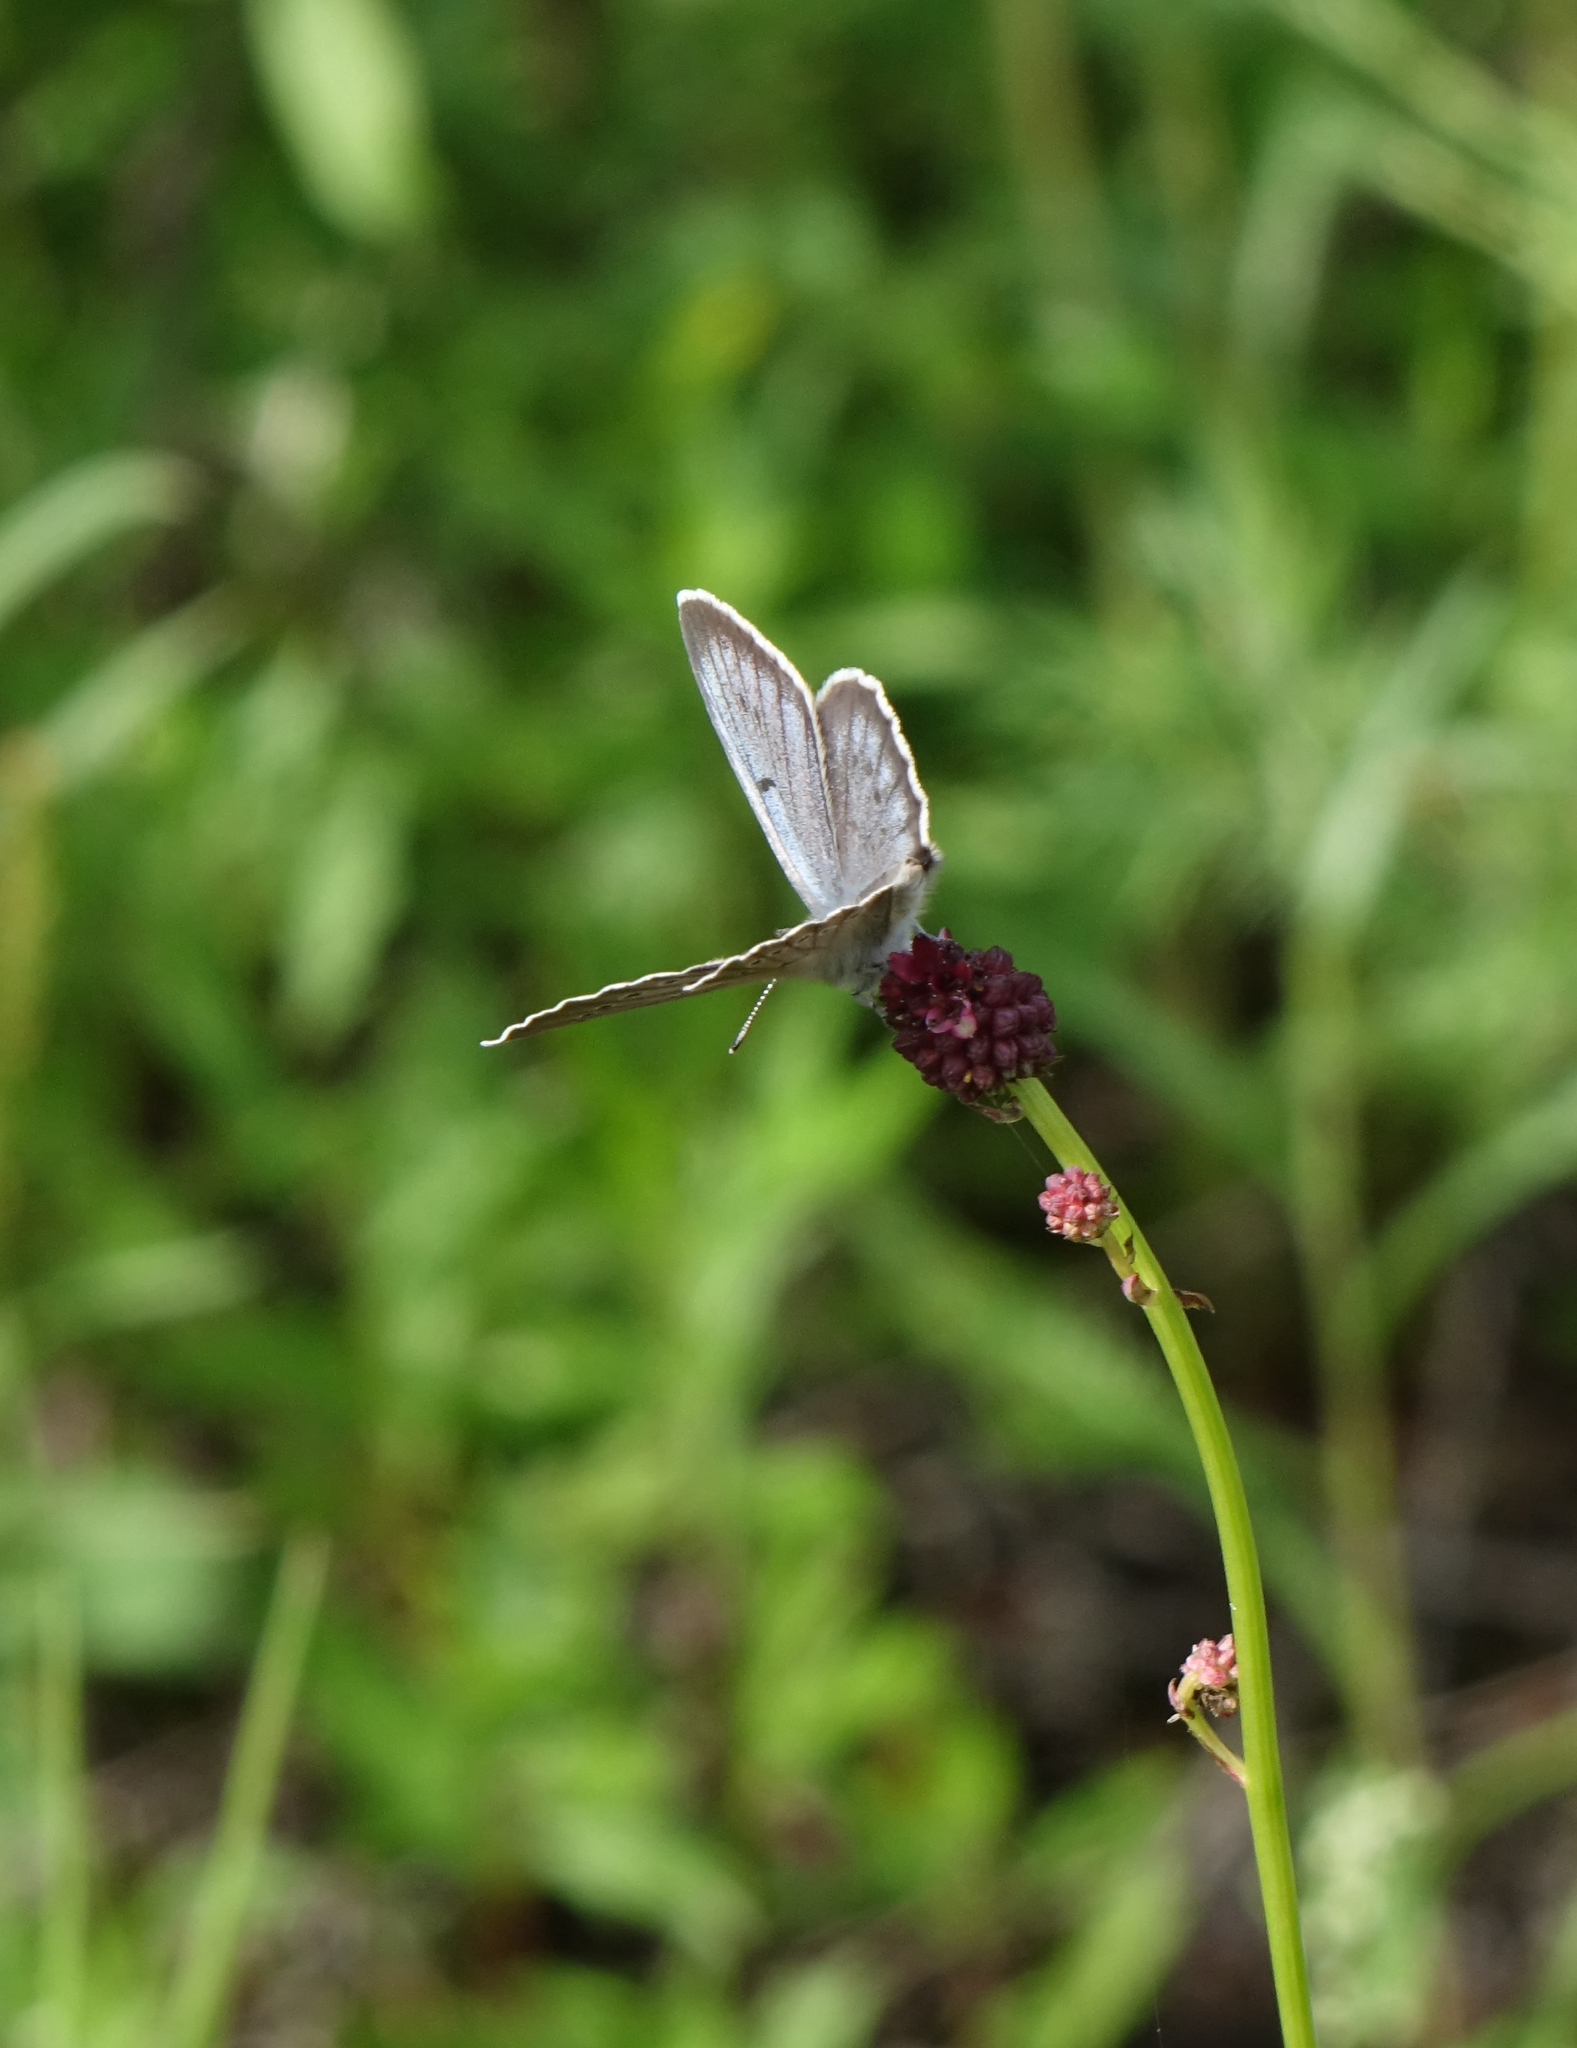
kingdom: Animalia
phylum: Arthropoda
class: Insecta
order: Lepidoptera
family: Lycaenidae
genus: Phengaris
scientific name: Phengaris teleius
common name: Scarce large blue
